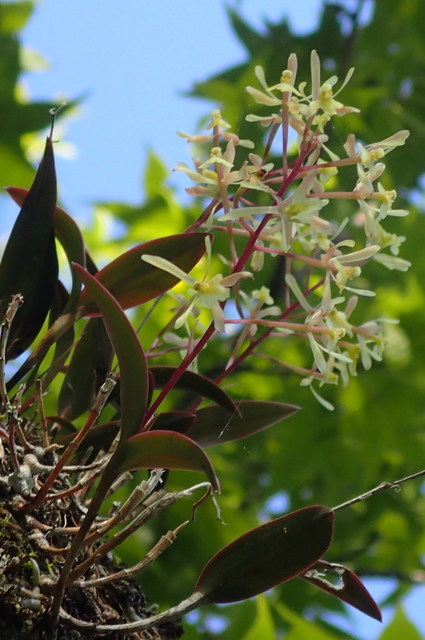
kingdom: Plantae
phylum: Tracheophyta
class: Liliopsida
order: Asparagales
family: Orchidaceae
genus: Epidendrum
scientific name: Epidendrum conopseum
